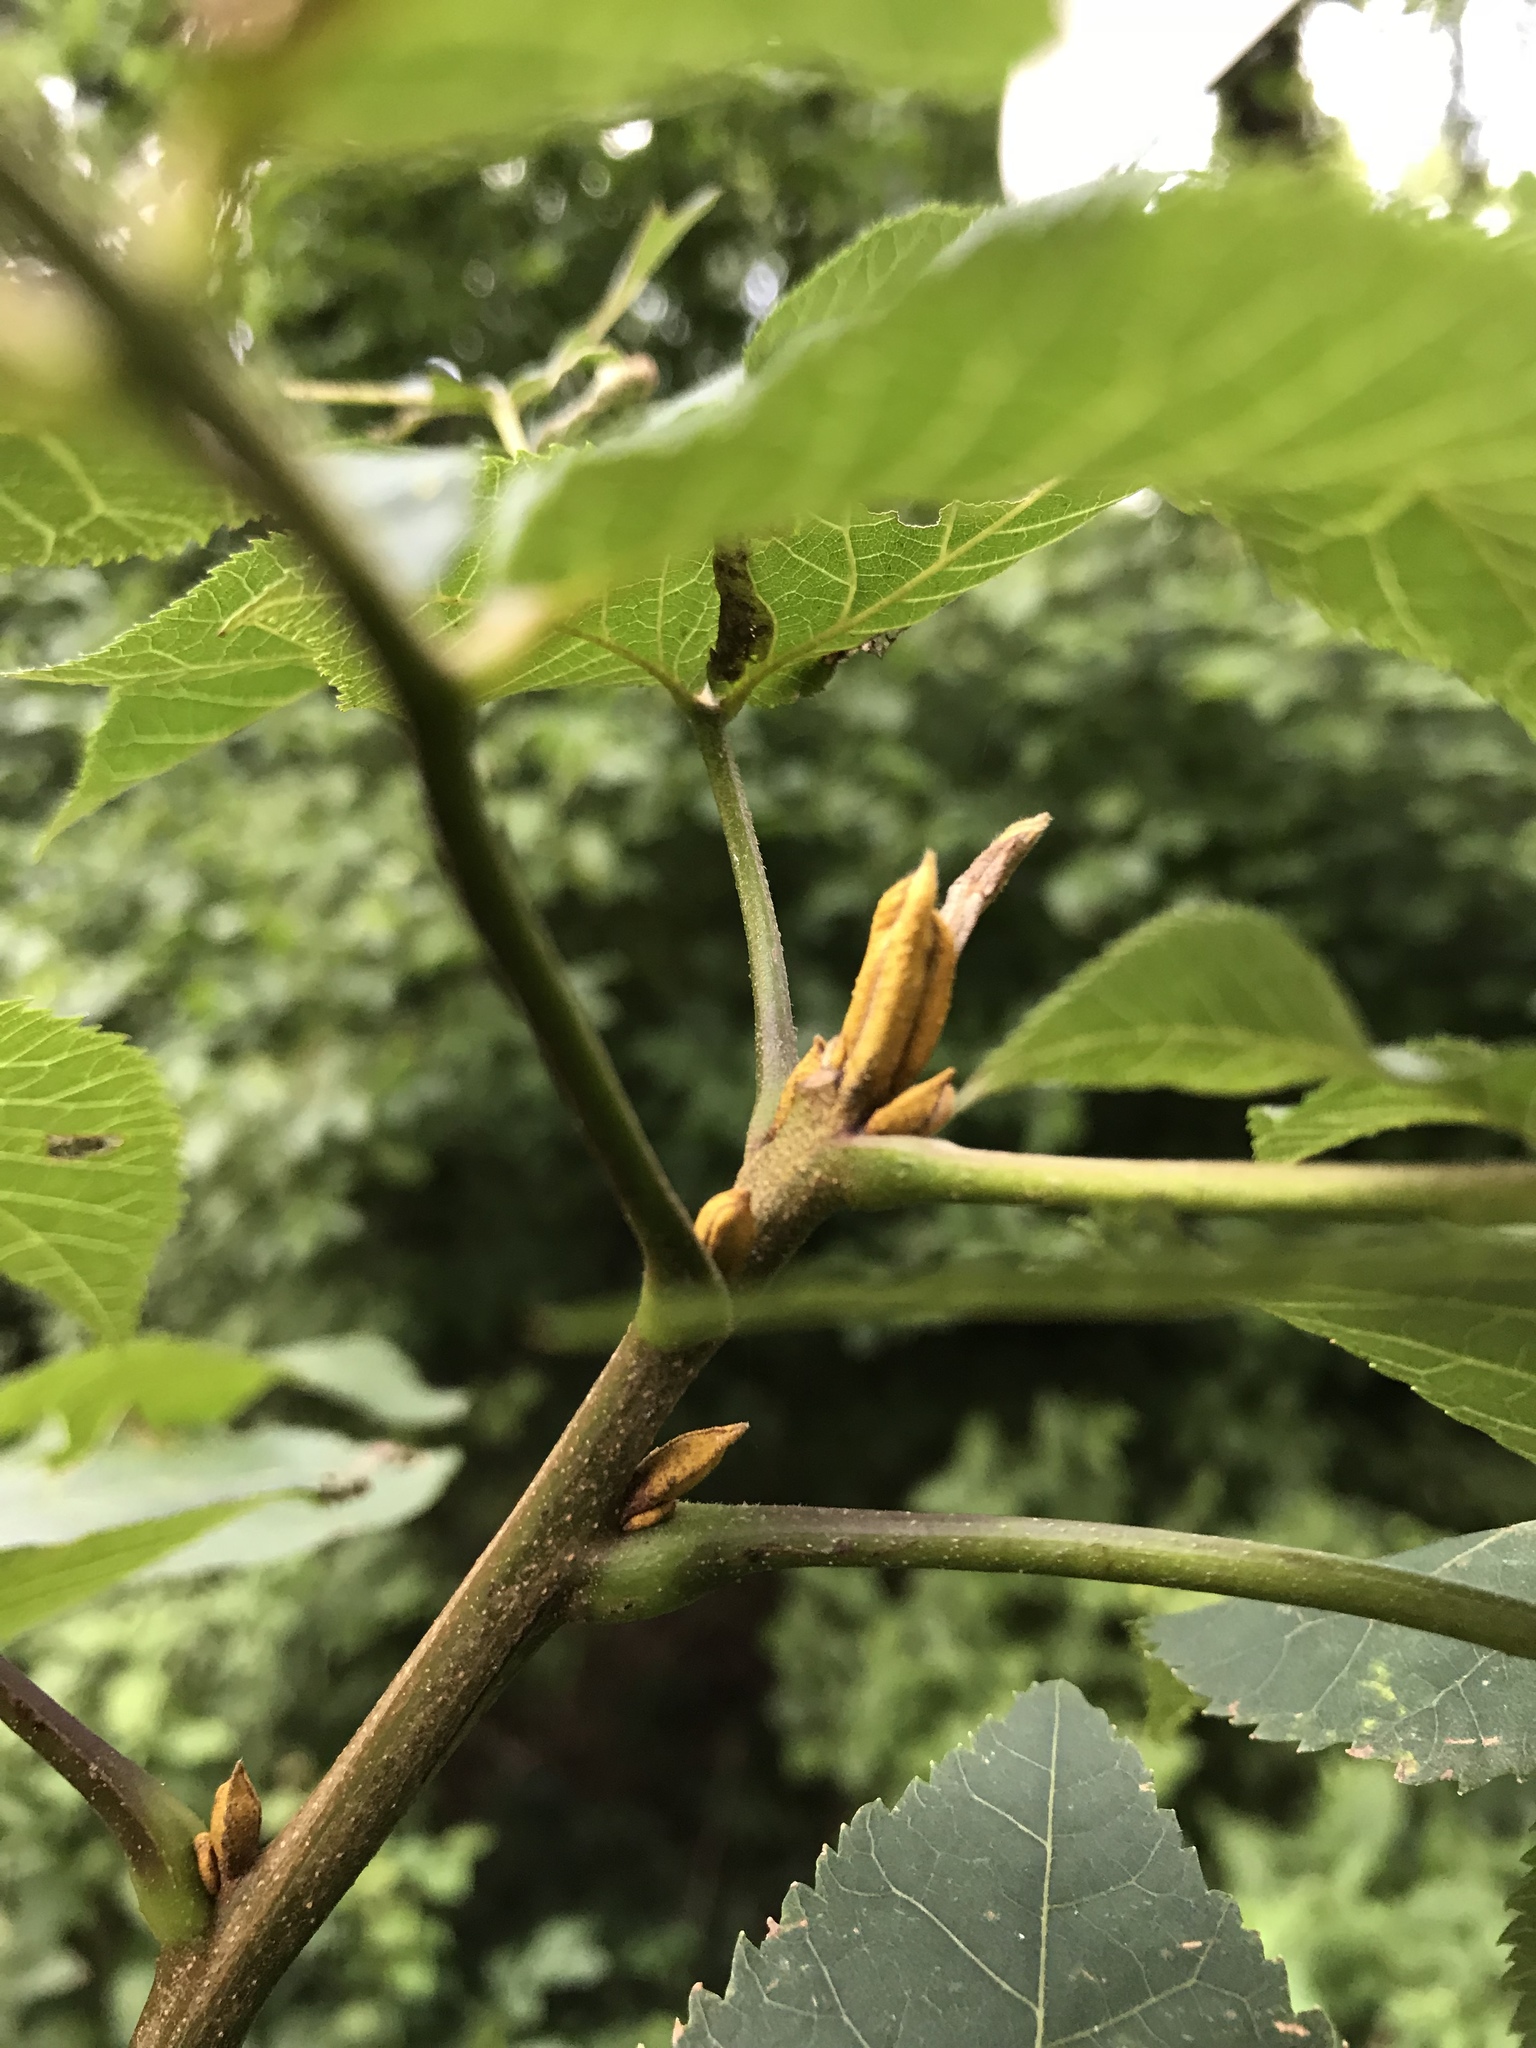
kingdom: Plantae
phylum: Tracheophyta
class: Magnoliopsida
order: Fagales
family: Juglandaceae
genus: Carya
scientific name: Carya cordiformis
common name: Bitternut hickory
